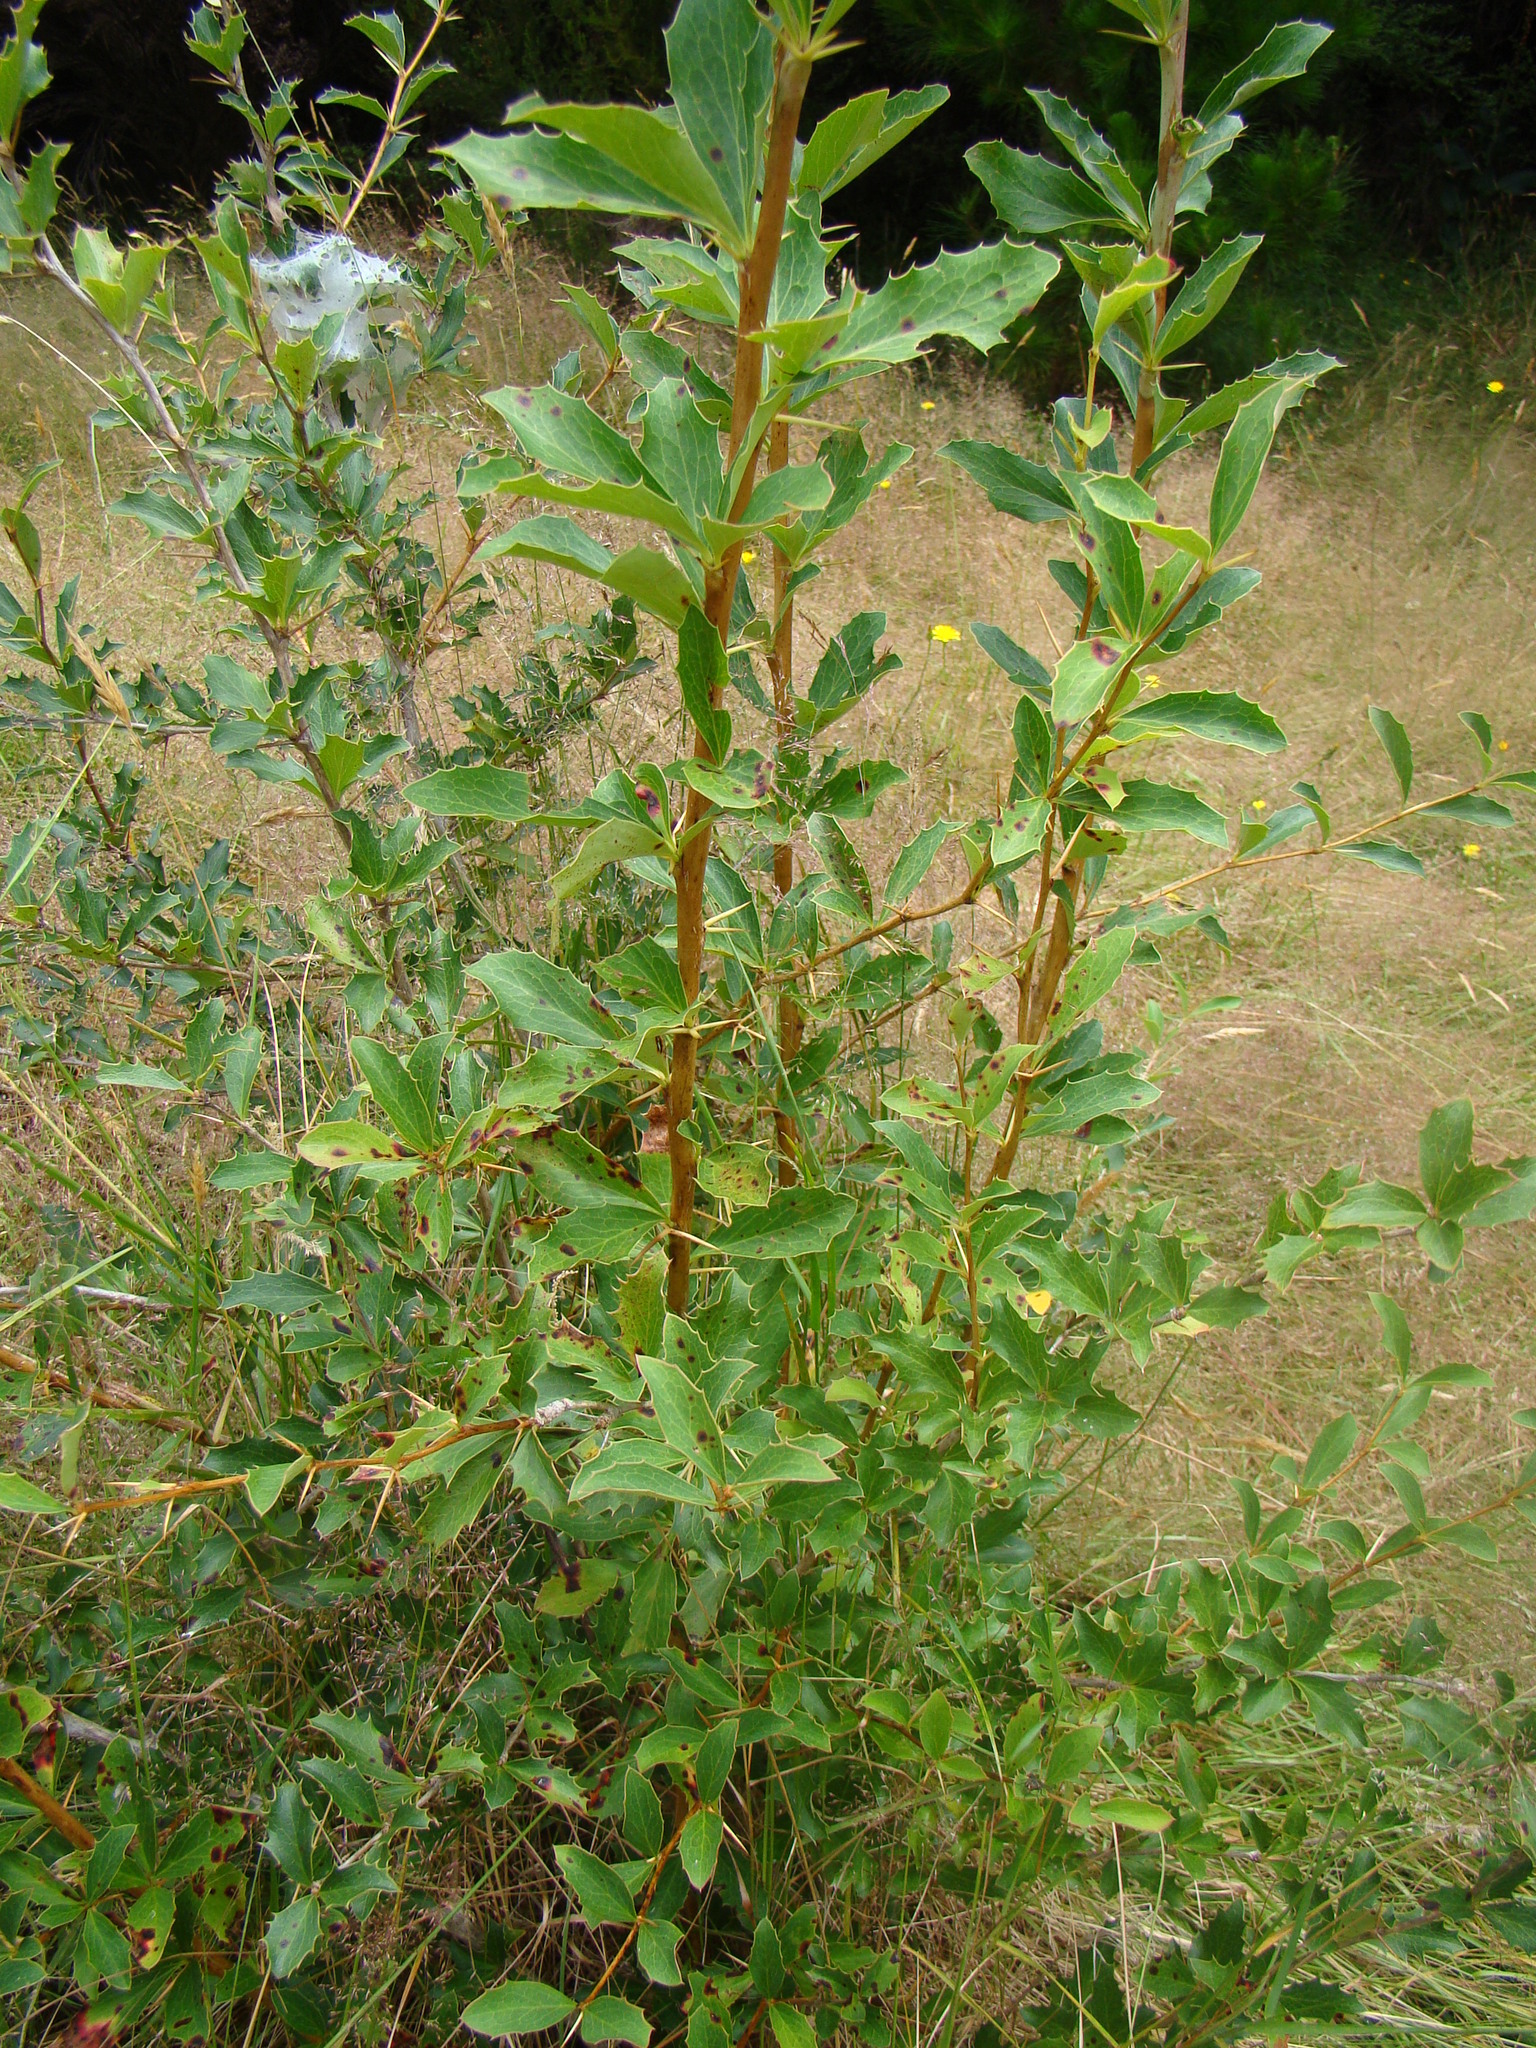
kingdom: Plantae
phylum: Tracheophyta
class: Magnoliopsida
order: Ranunculales
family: Berberidaceae
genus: Berberis
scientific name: Berberis glaucocarpa
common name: Great barberry
